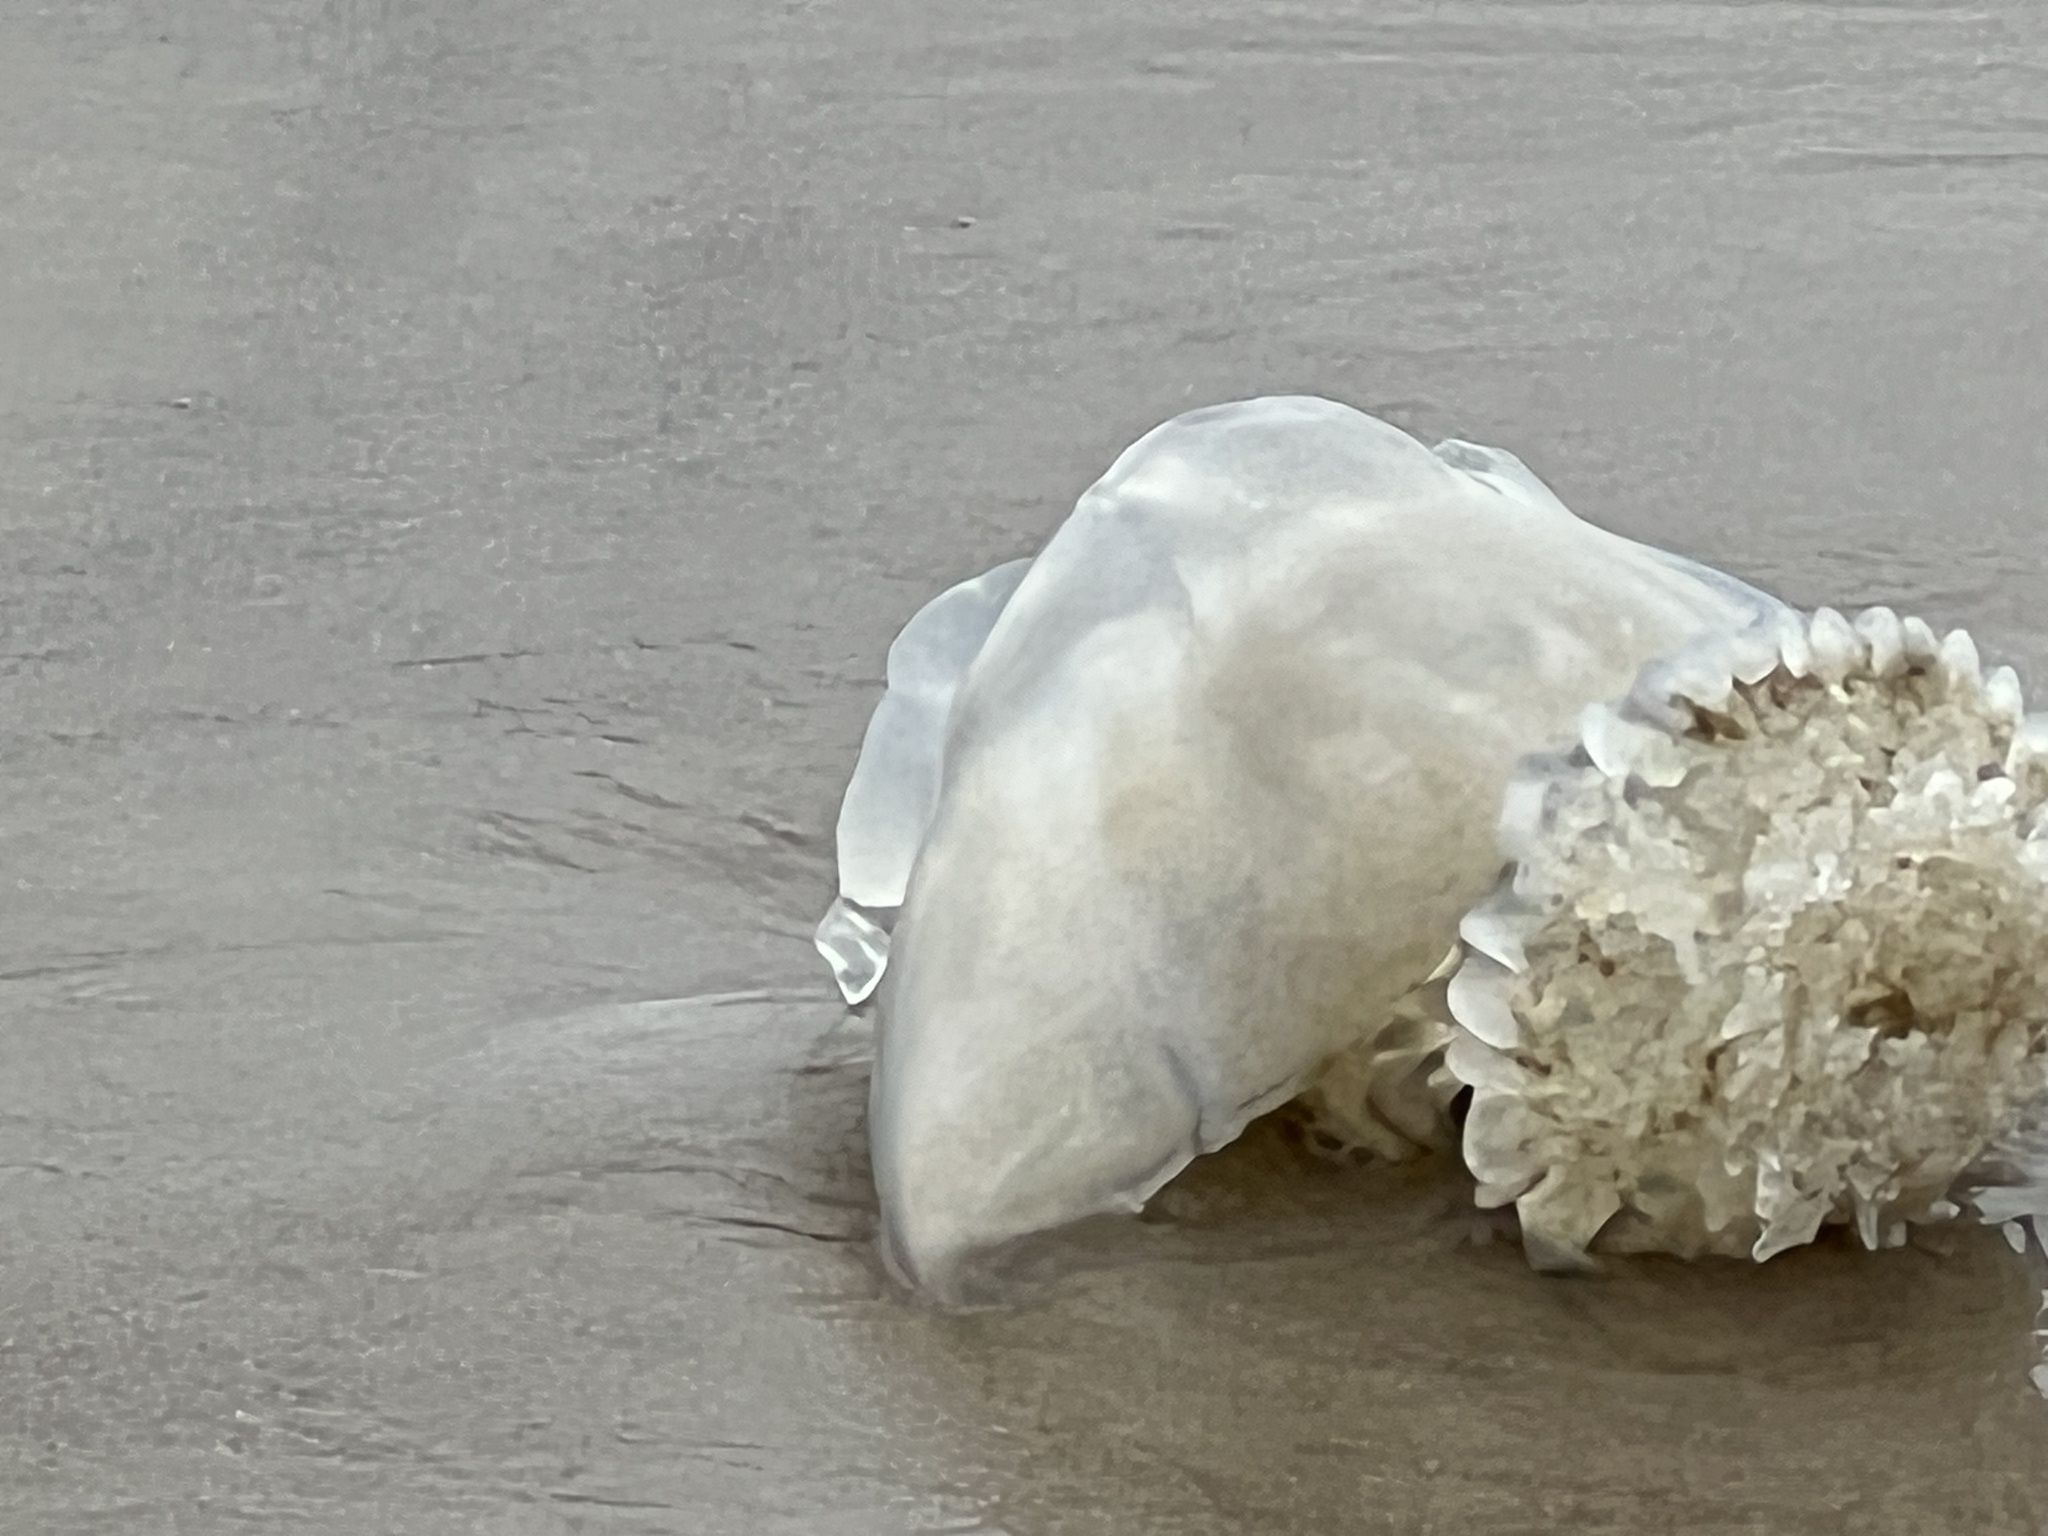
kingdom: Animalia
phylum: Cnidaria
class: Scyphozoa
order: Rhizostomeae
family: Stomolophidae
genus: Stomolophus
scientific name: Stomolophus meleagris
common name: Cabbagehead
